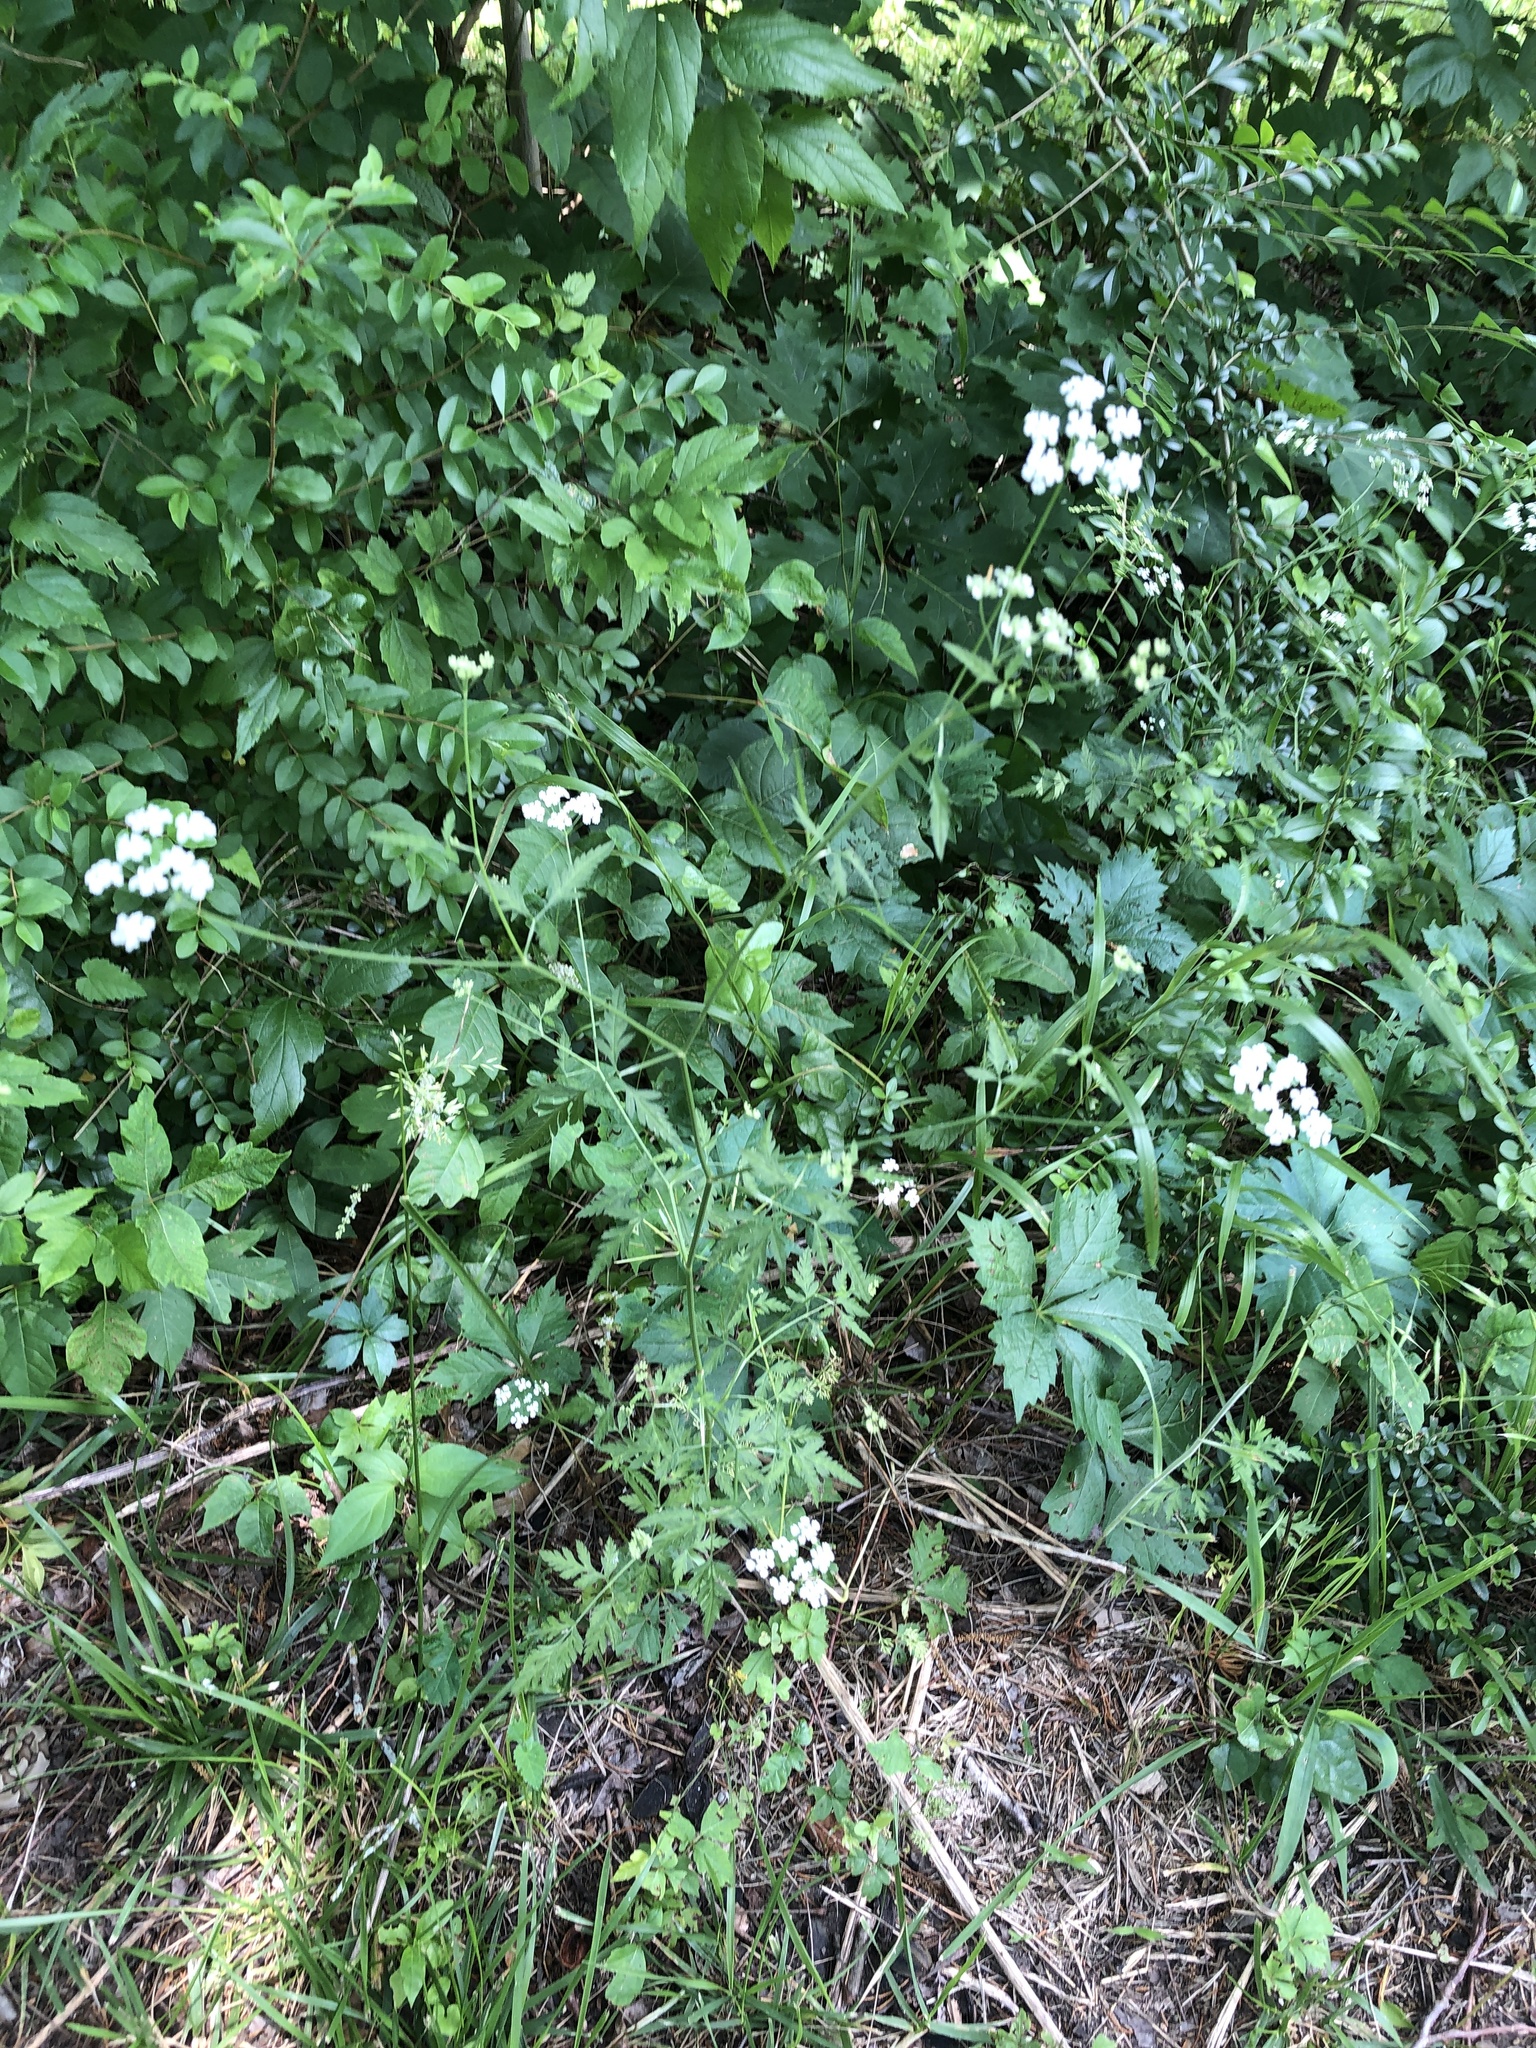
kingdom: Plantae
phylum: Tracheophyta
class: Magnoliopsida
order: Apiales
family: Apiaceae
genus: Torilis
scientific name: Torilis arvensis
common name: Spreading hedge-parsley
